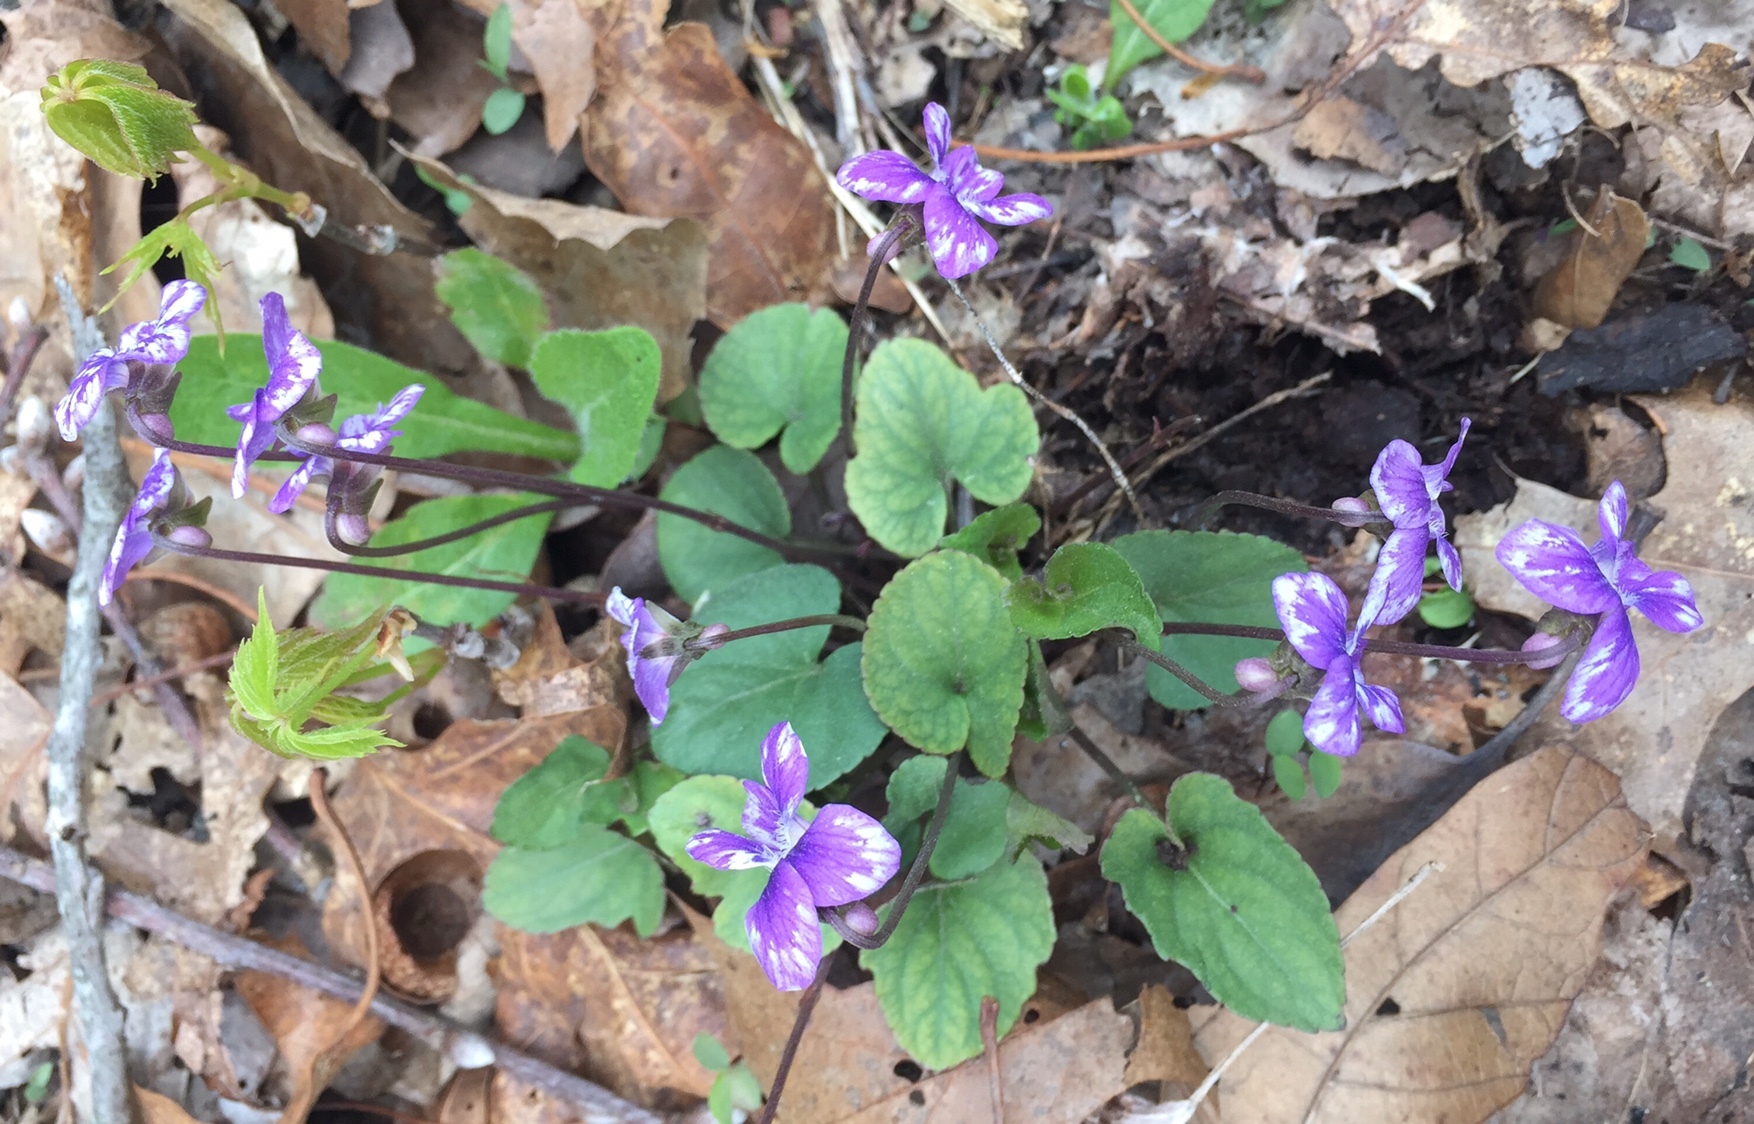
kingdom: Plantae
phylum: Tracheophyta
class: Magnoliopsida
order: Malpighiales
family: Violaceae
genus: Viola
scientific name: Viola palmata
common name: Early blue violet
